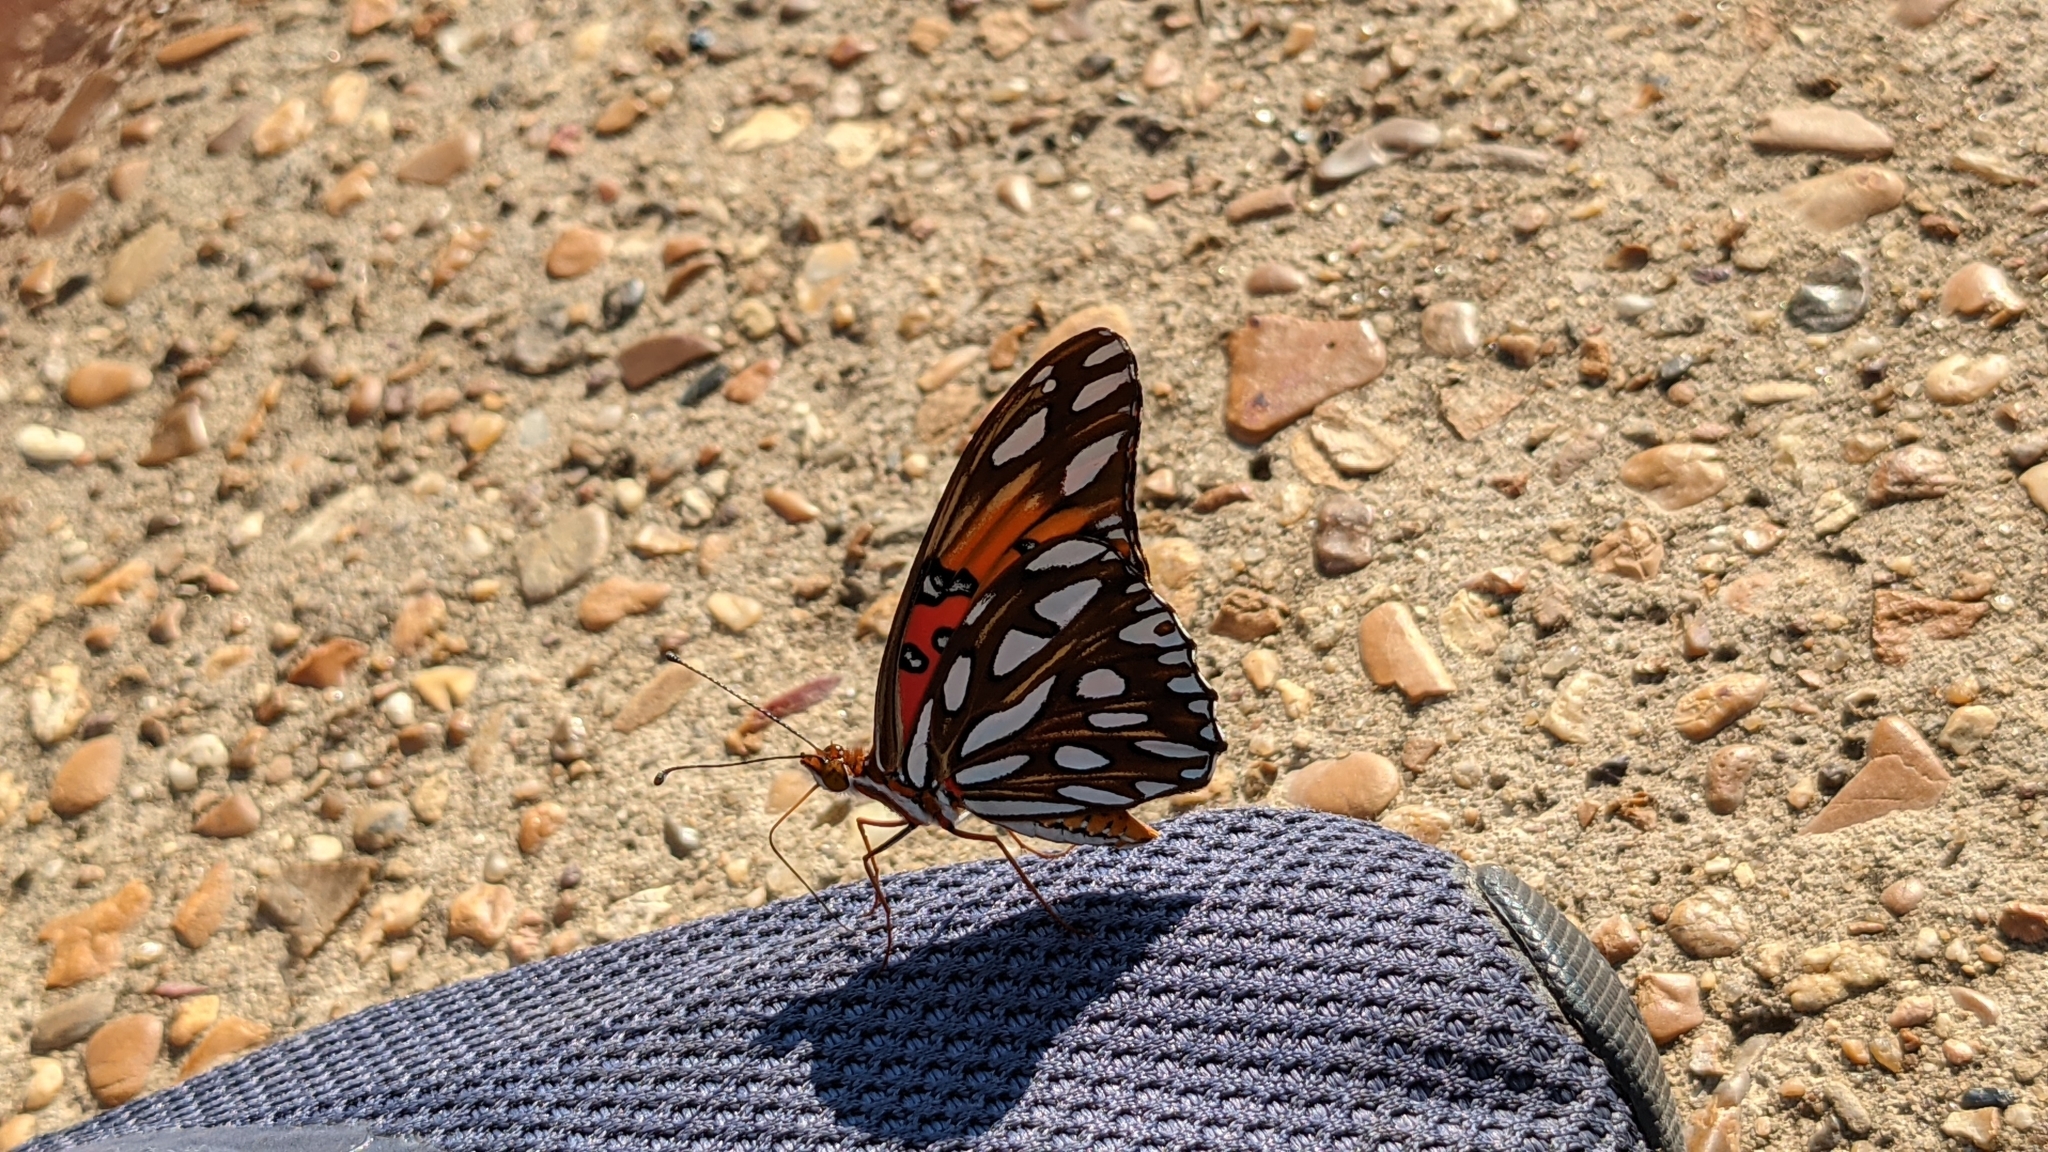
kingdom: Animalia
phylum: Arthropoda
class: Insecta
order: Lepidoptera
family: Nymphalidae
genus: Dione
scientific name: Dione vanillae
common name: Gulf fritillary
